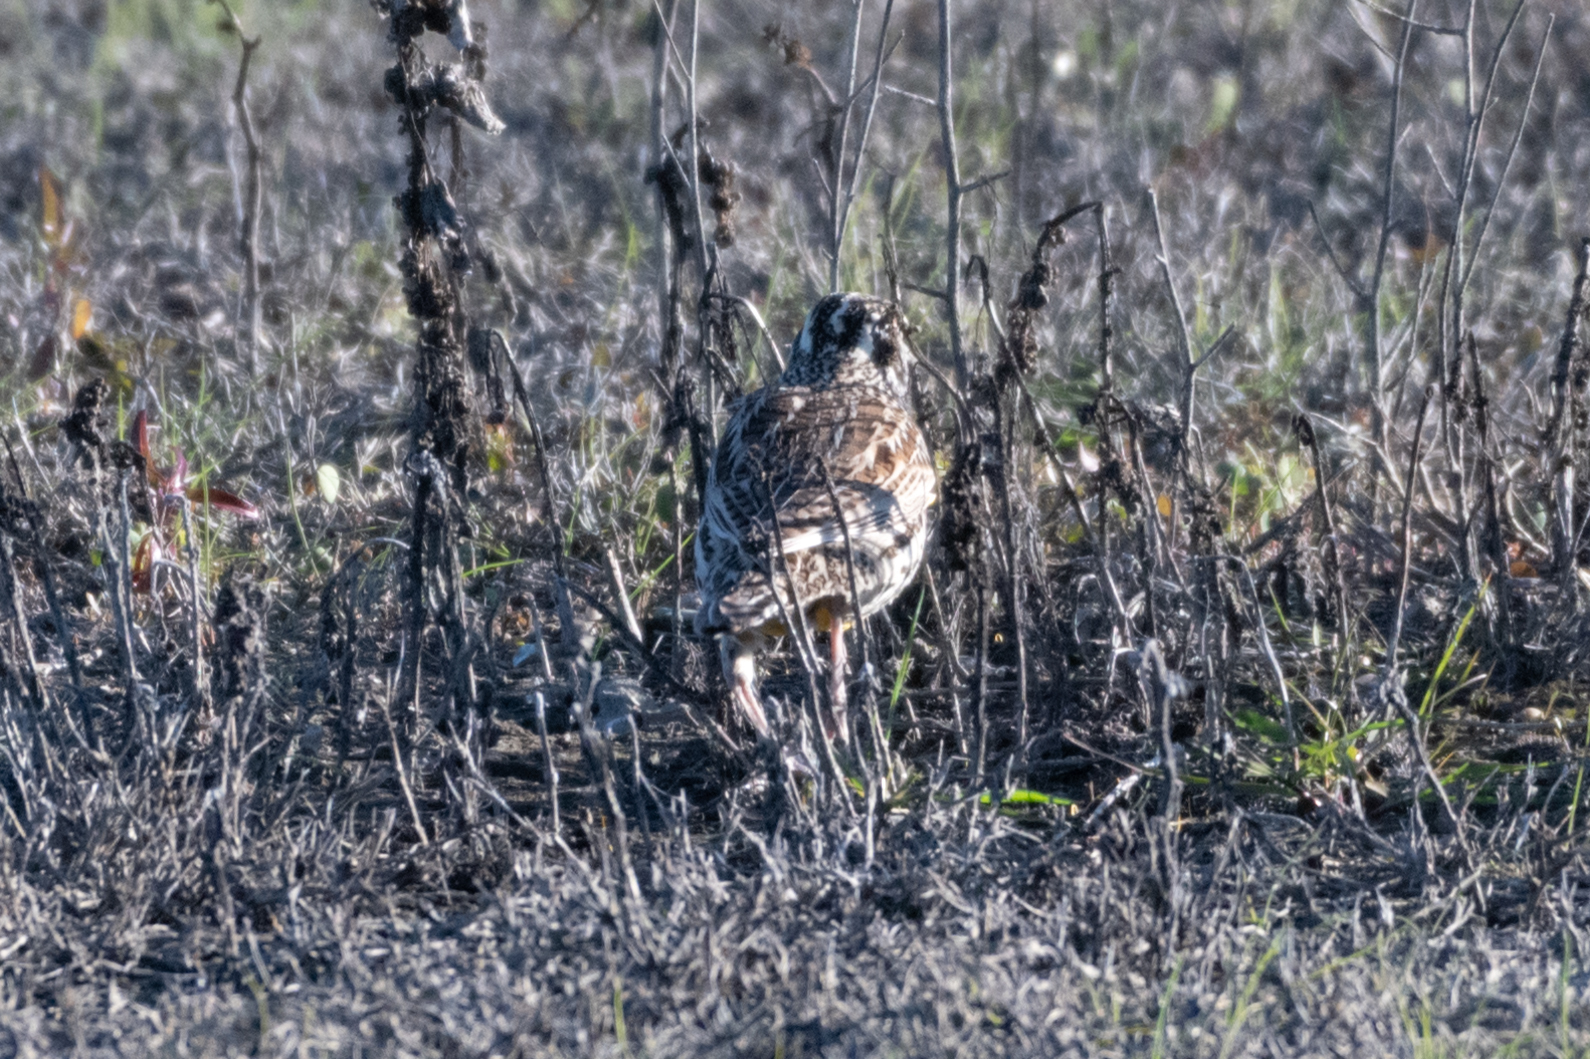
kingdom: Animalia
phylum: Chordata
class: Aves
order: Passeriformes
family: Icteridae
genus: Sturnella
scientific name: Sturnella neglecta
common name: Western meadowlark
